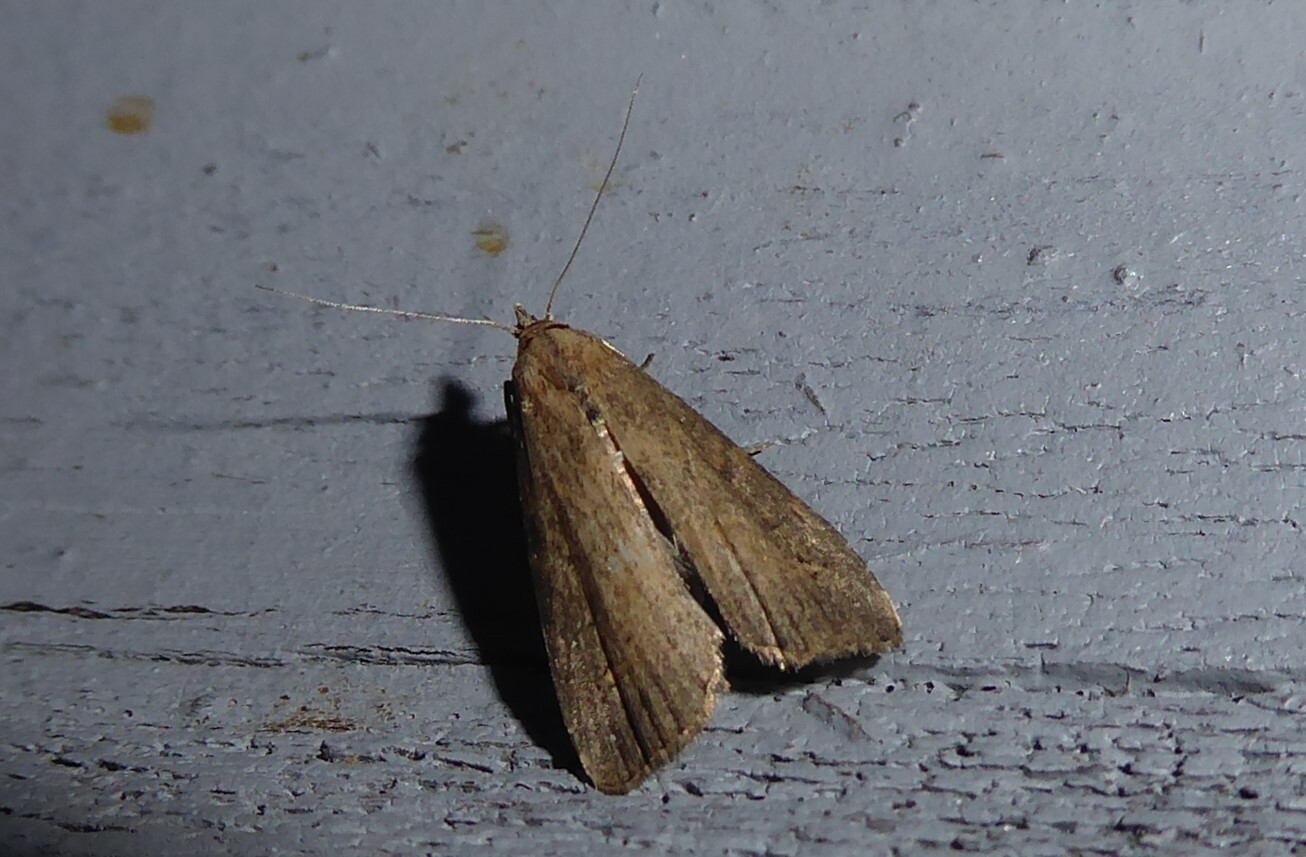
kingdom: Animalia
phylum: Arthropoda
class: Insecta
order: Lepidoptera
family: Erebidae
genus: Schrankia
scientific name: Schrankia costaestrigalis
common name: Pinion-streaked snout
